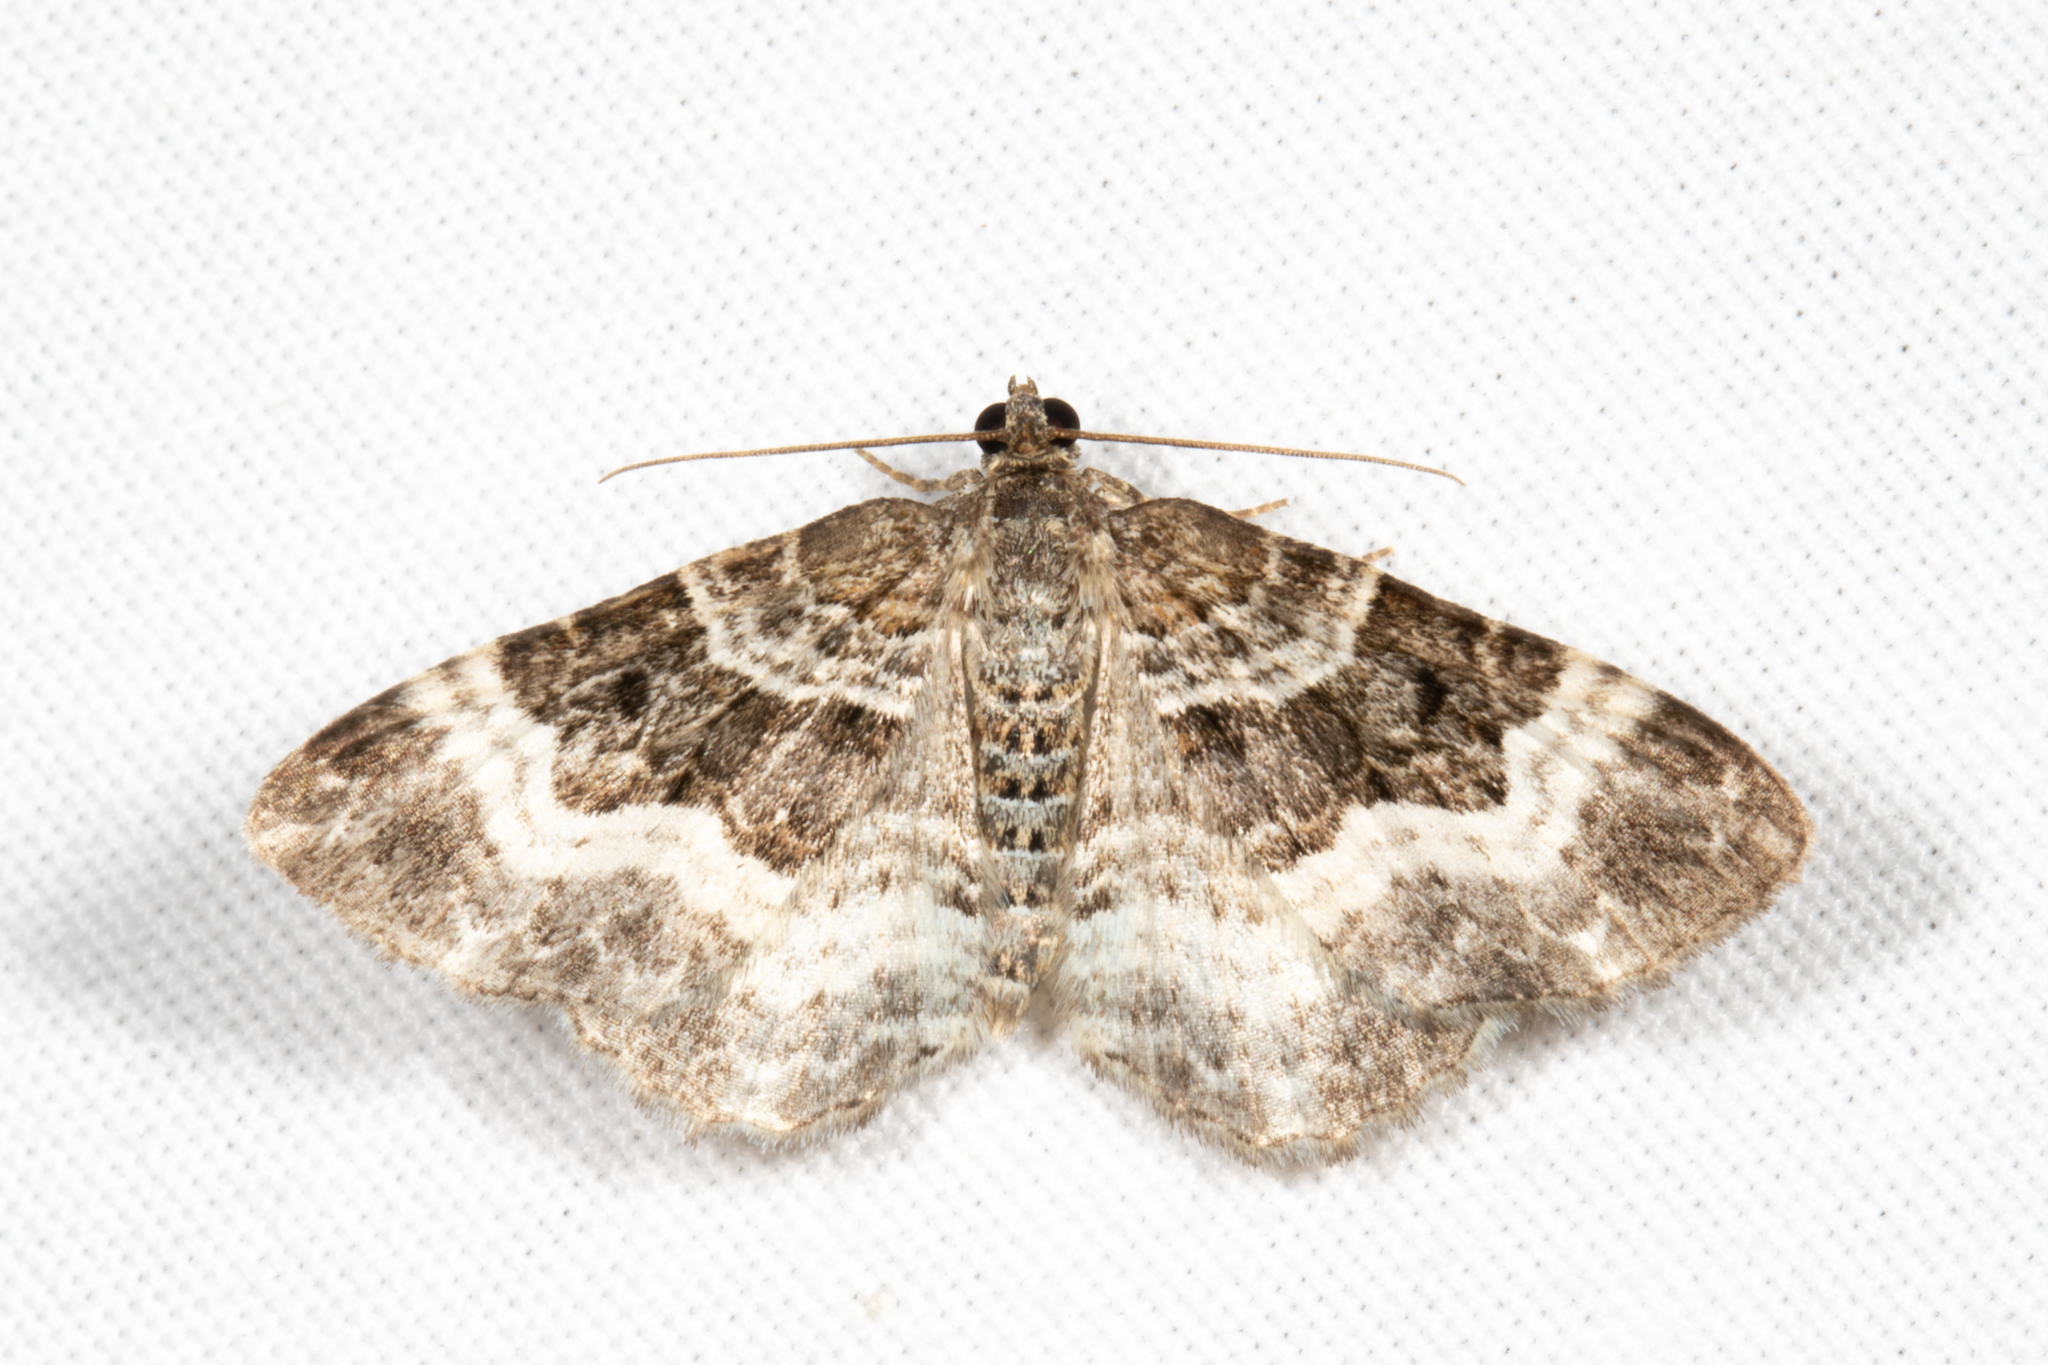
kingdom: Animalia
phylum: Arthropoda
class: Insecta
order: Lepidoptera
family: Geometridae
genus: Epirrhoe
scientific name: Epirrhoe alternata
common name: Common carpet
